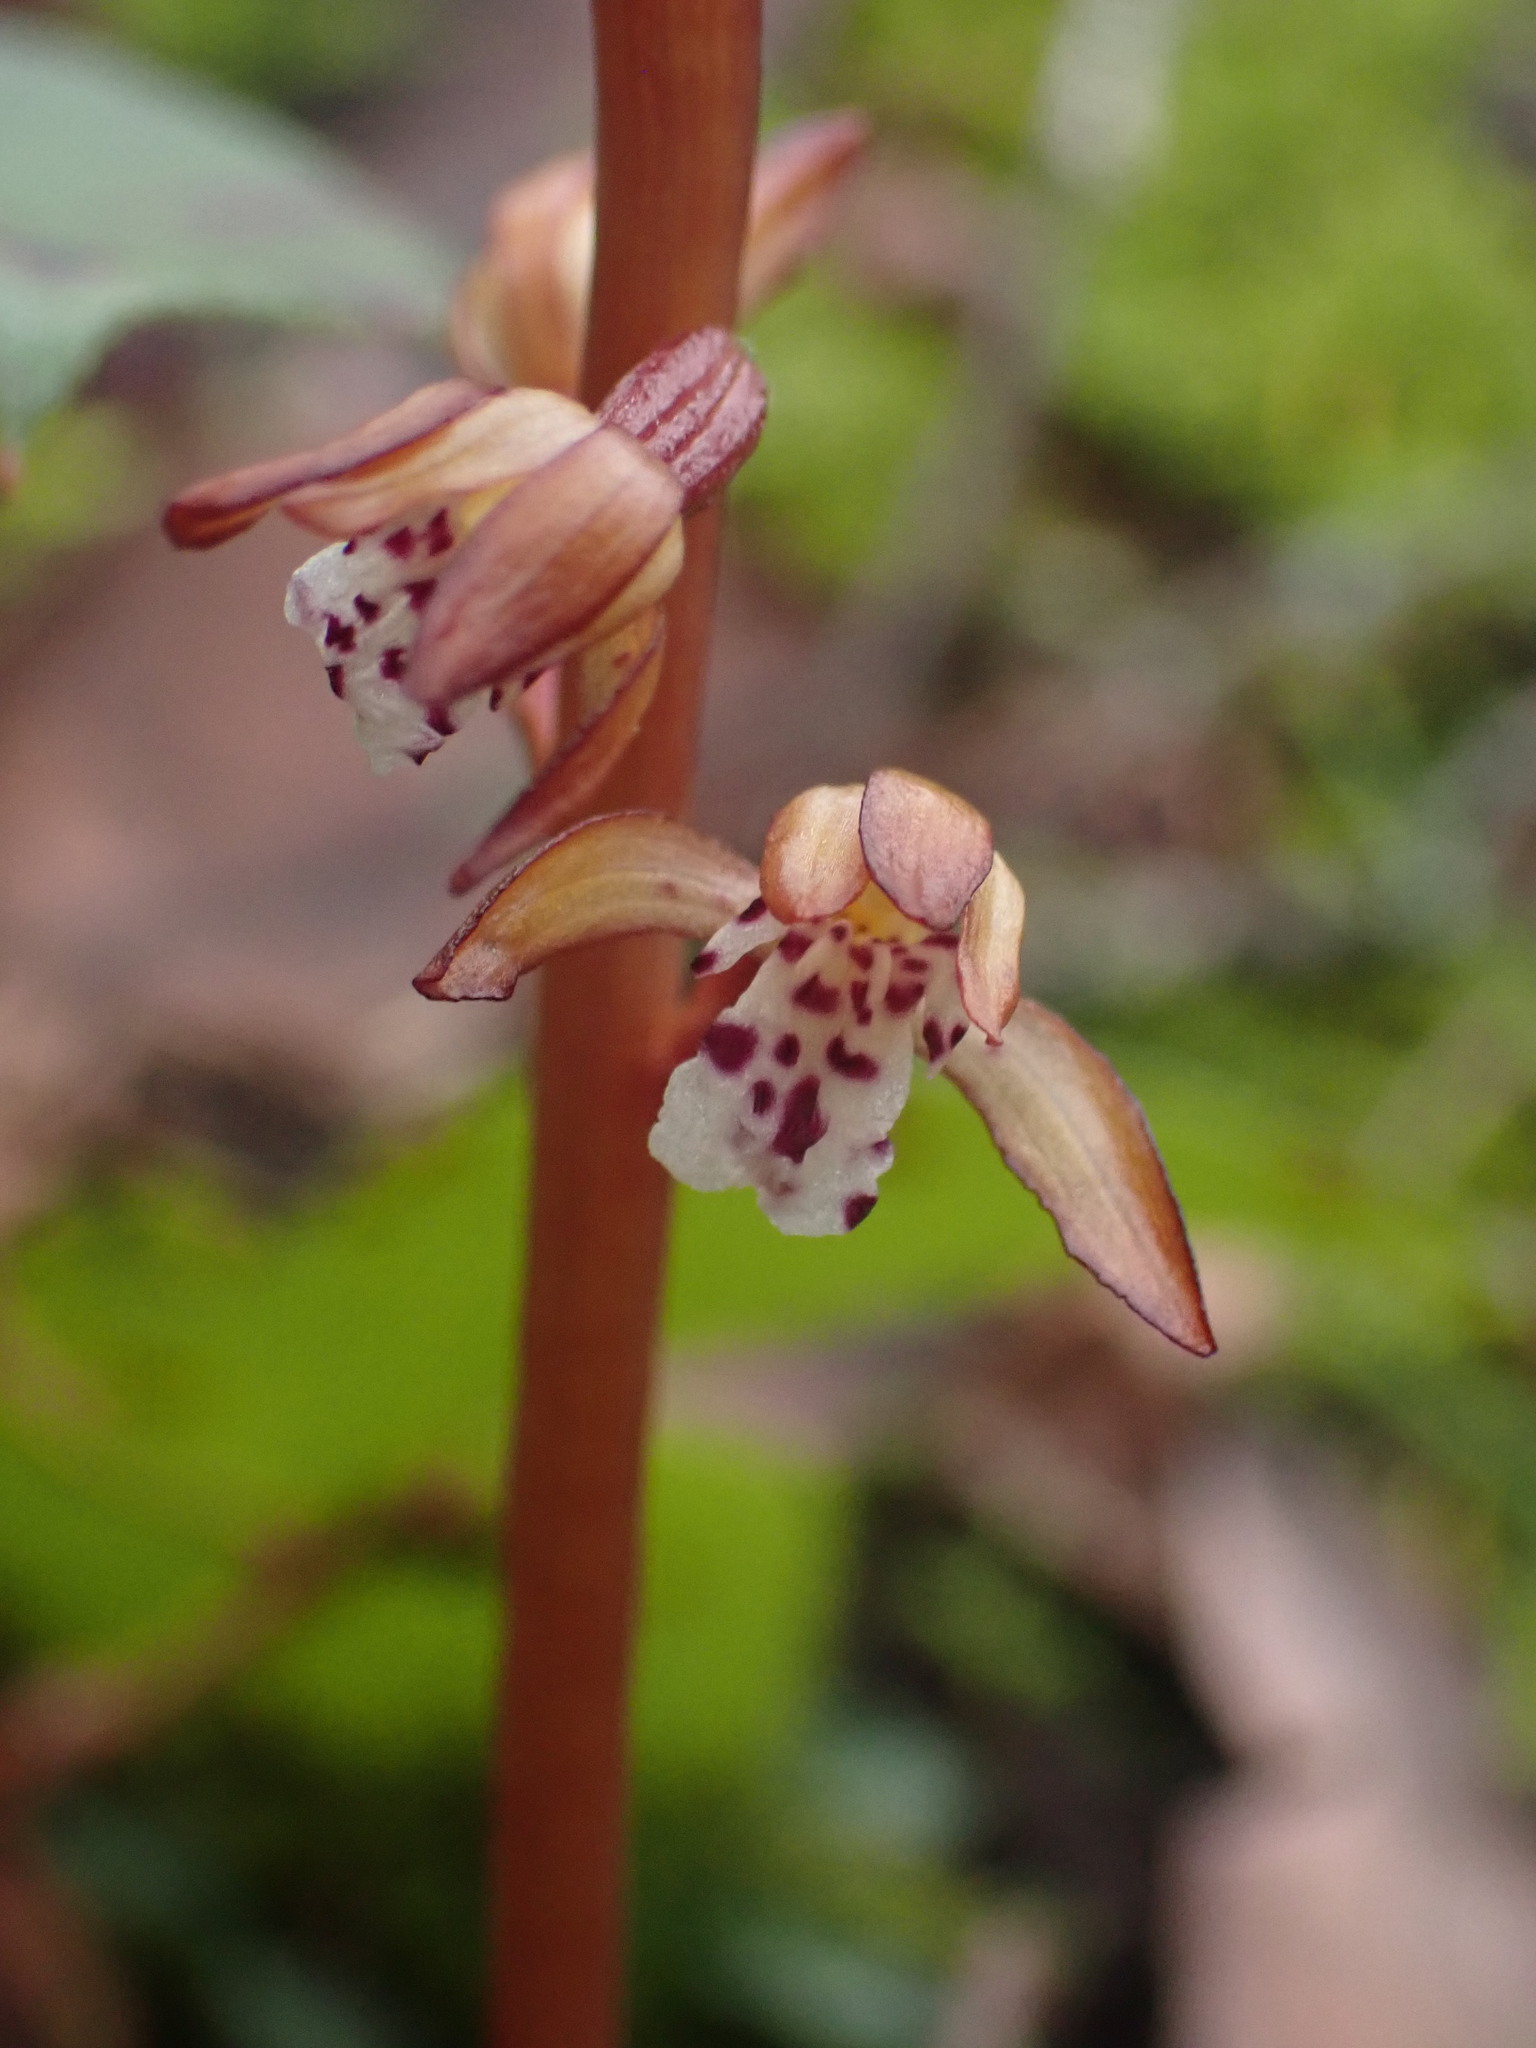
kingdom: Plantae
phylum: Tracheophyta
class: Liliopsida
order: Asparagales
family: Orchidaceae
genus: Corallorhiza
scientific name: Corallorhiza maculata
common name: Spotted coralroot
